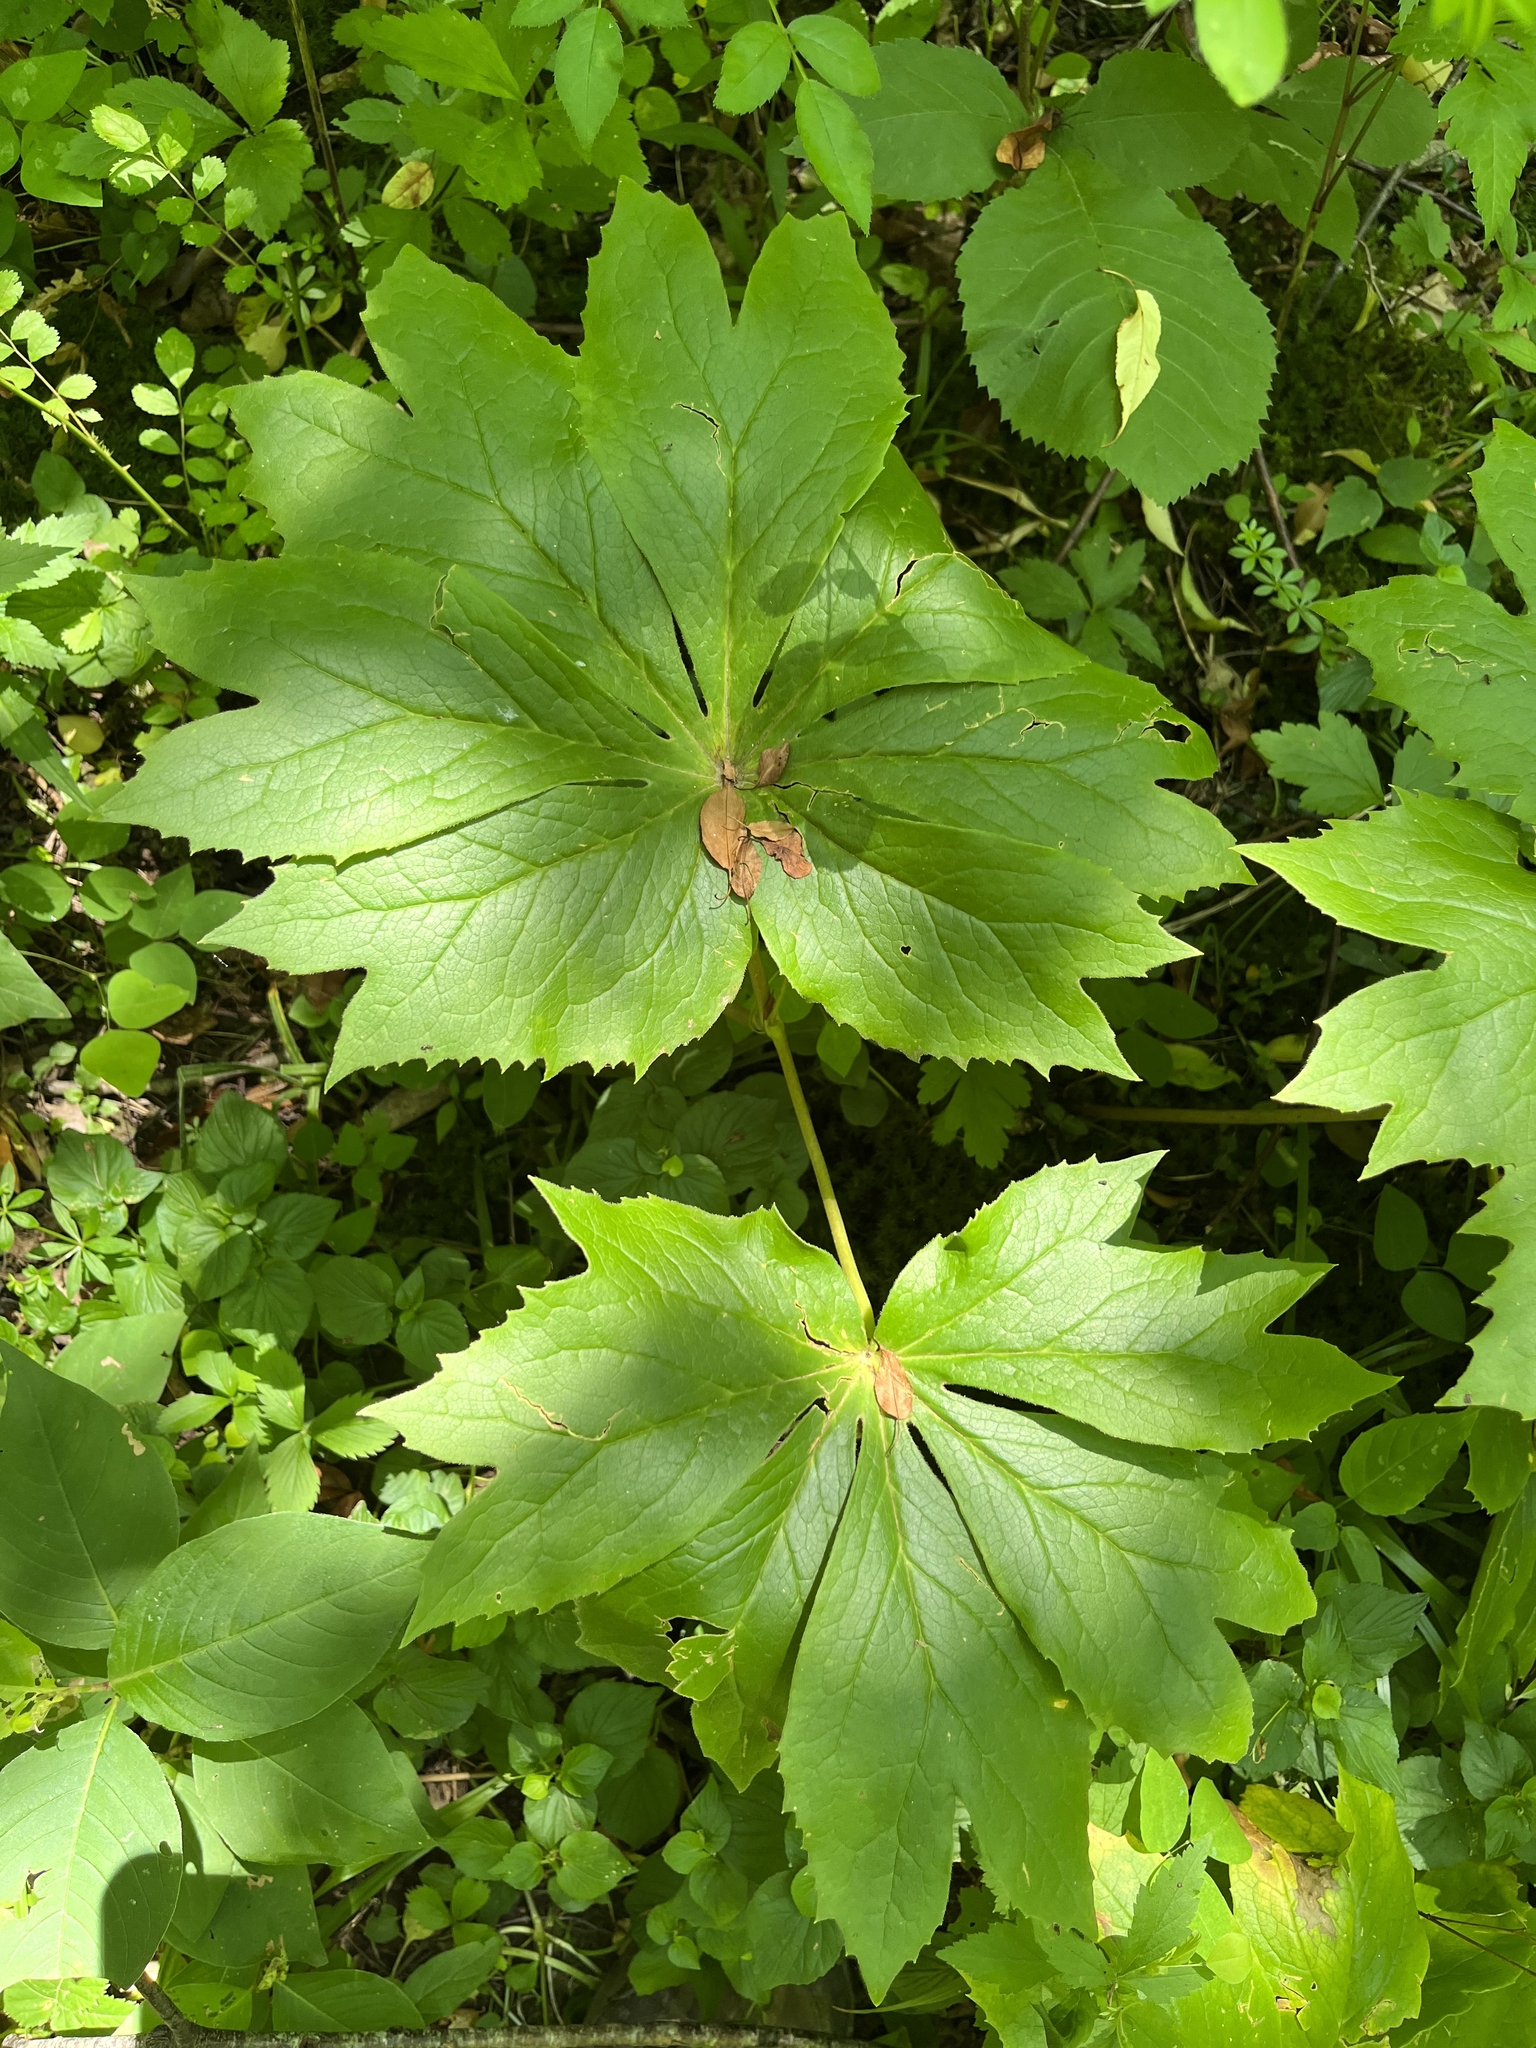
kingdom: Plantae
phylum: Tracheophyta
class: Magnoliopsida
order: Ranunculales
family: Berberidaceae
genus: Podophyllum
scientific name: Podophyllum peltatum
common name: Wild mandrake
